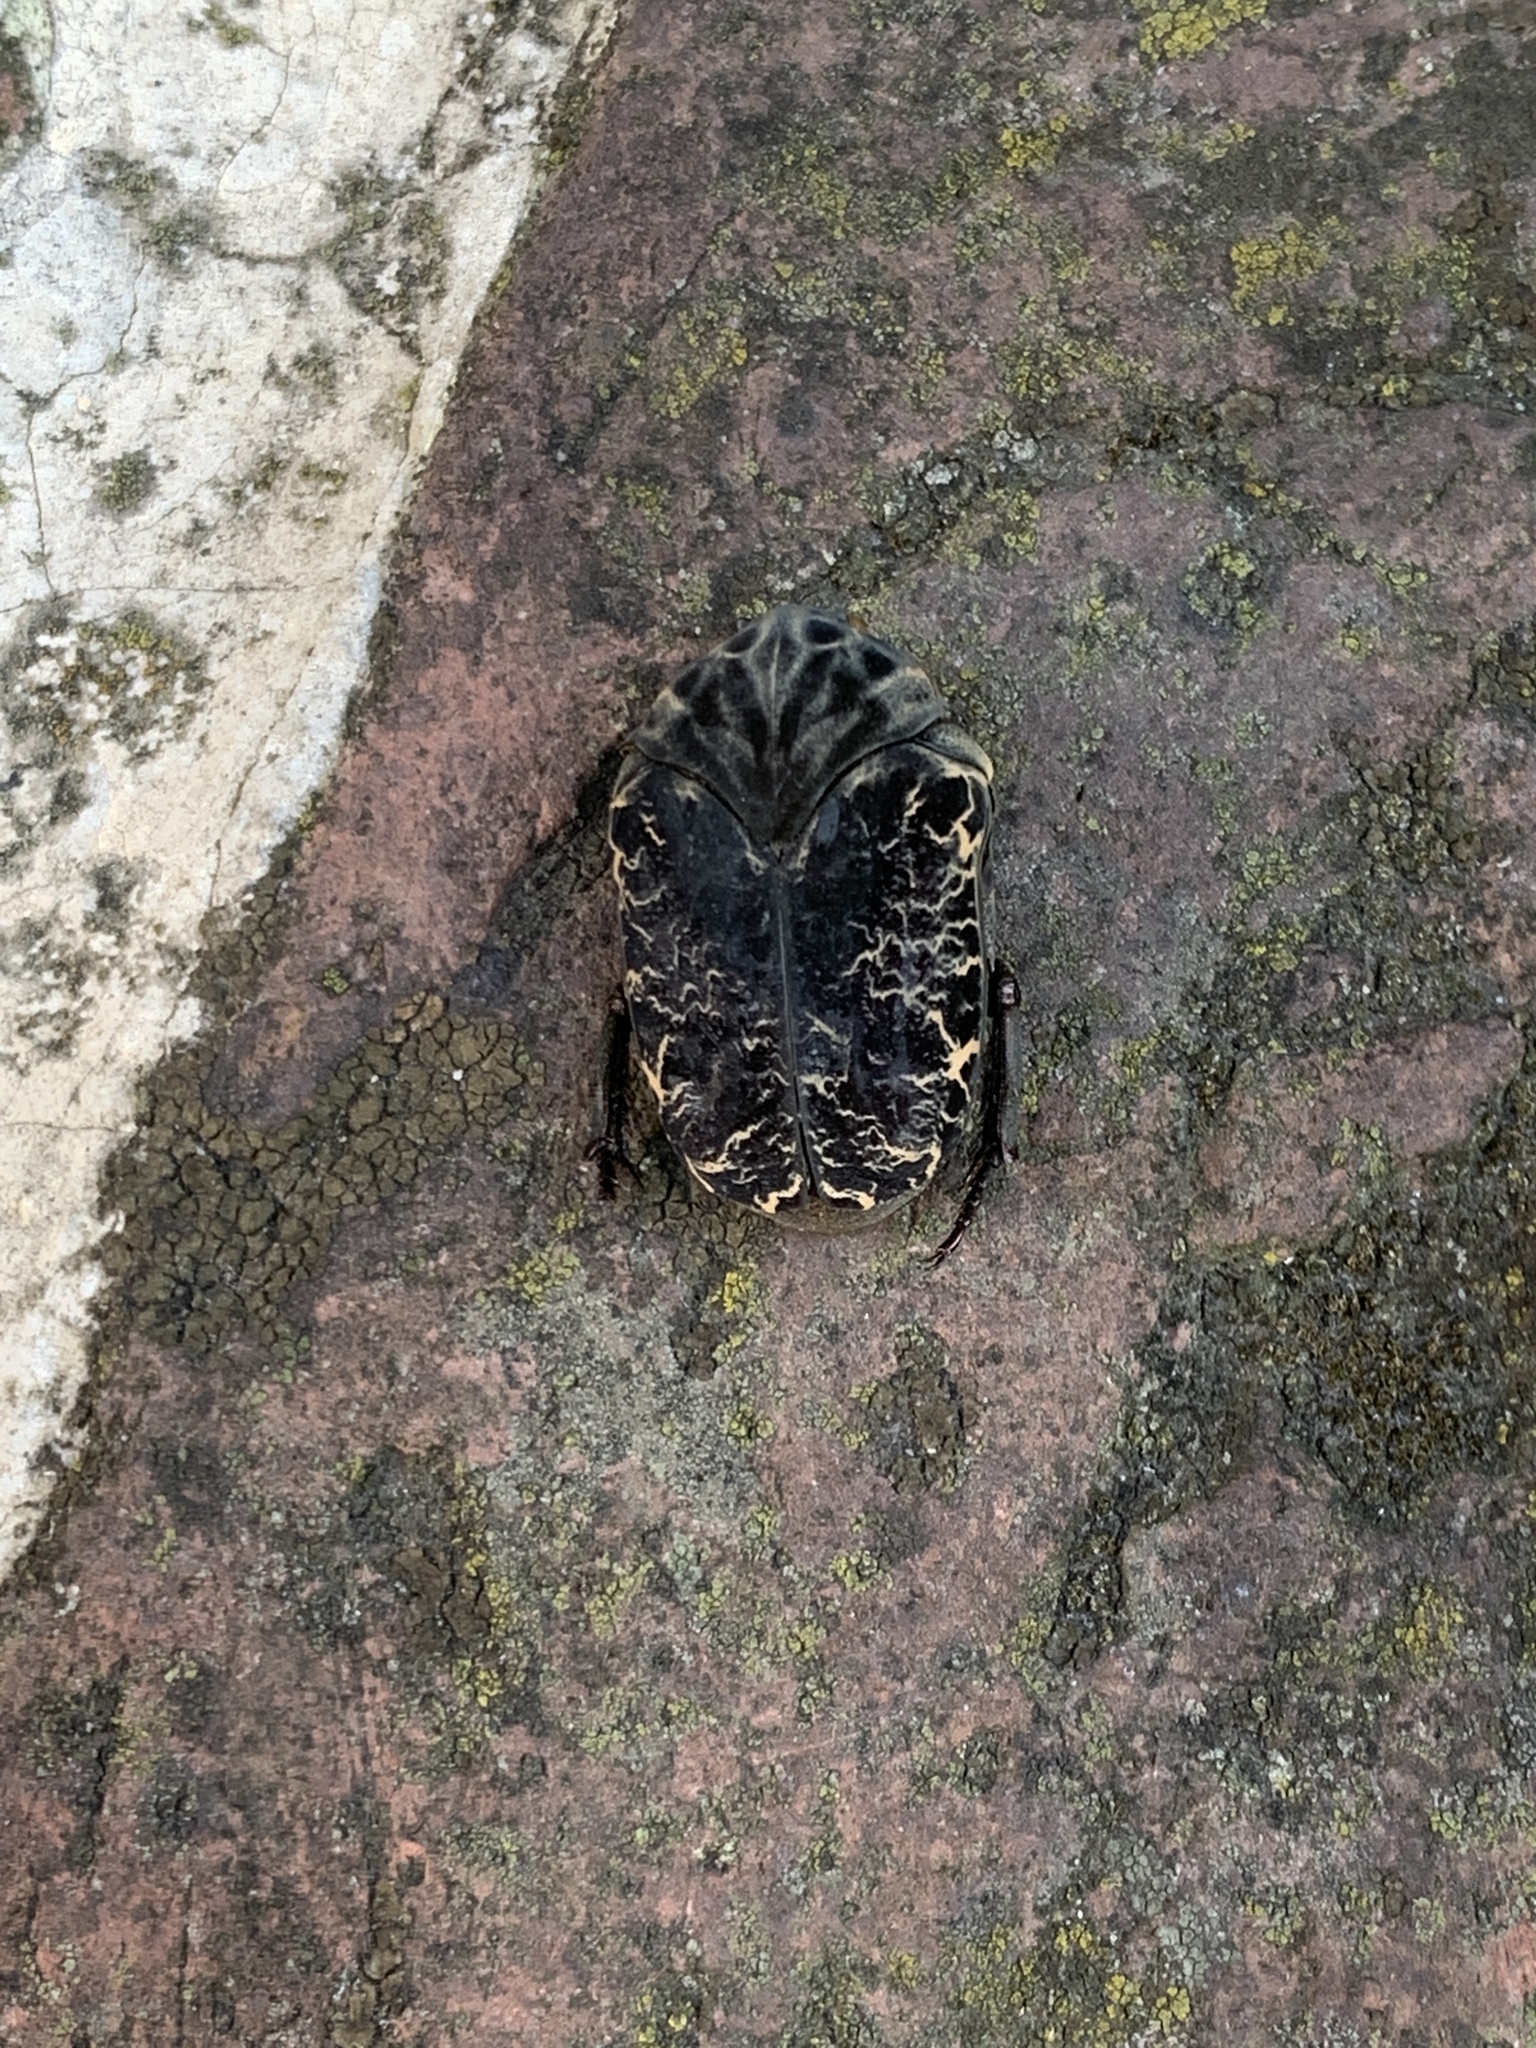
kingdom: Animalia
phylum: Arthropoda
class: Insecta
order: Coleoptera
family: Scarabaeidae
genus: Gymnetis
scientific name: Gymnetis chalcipes
